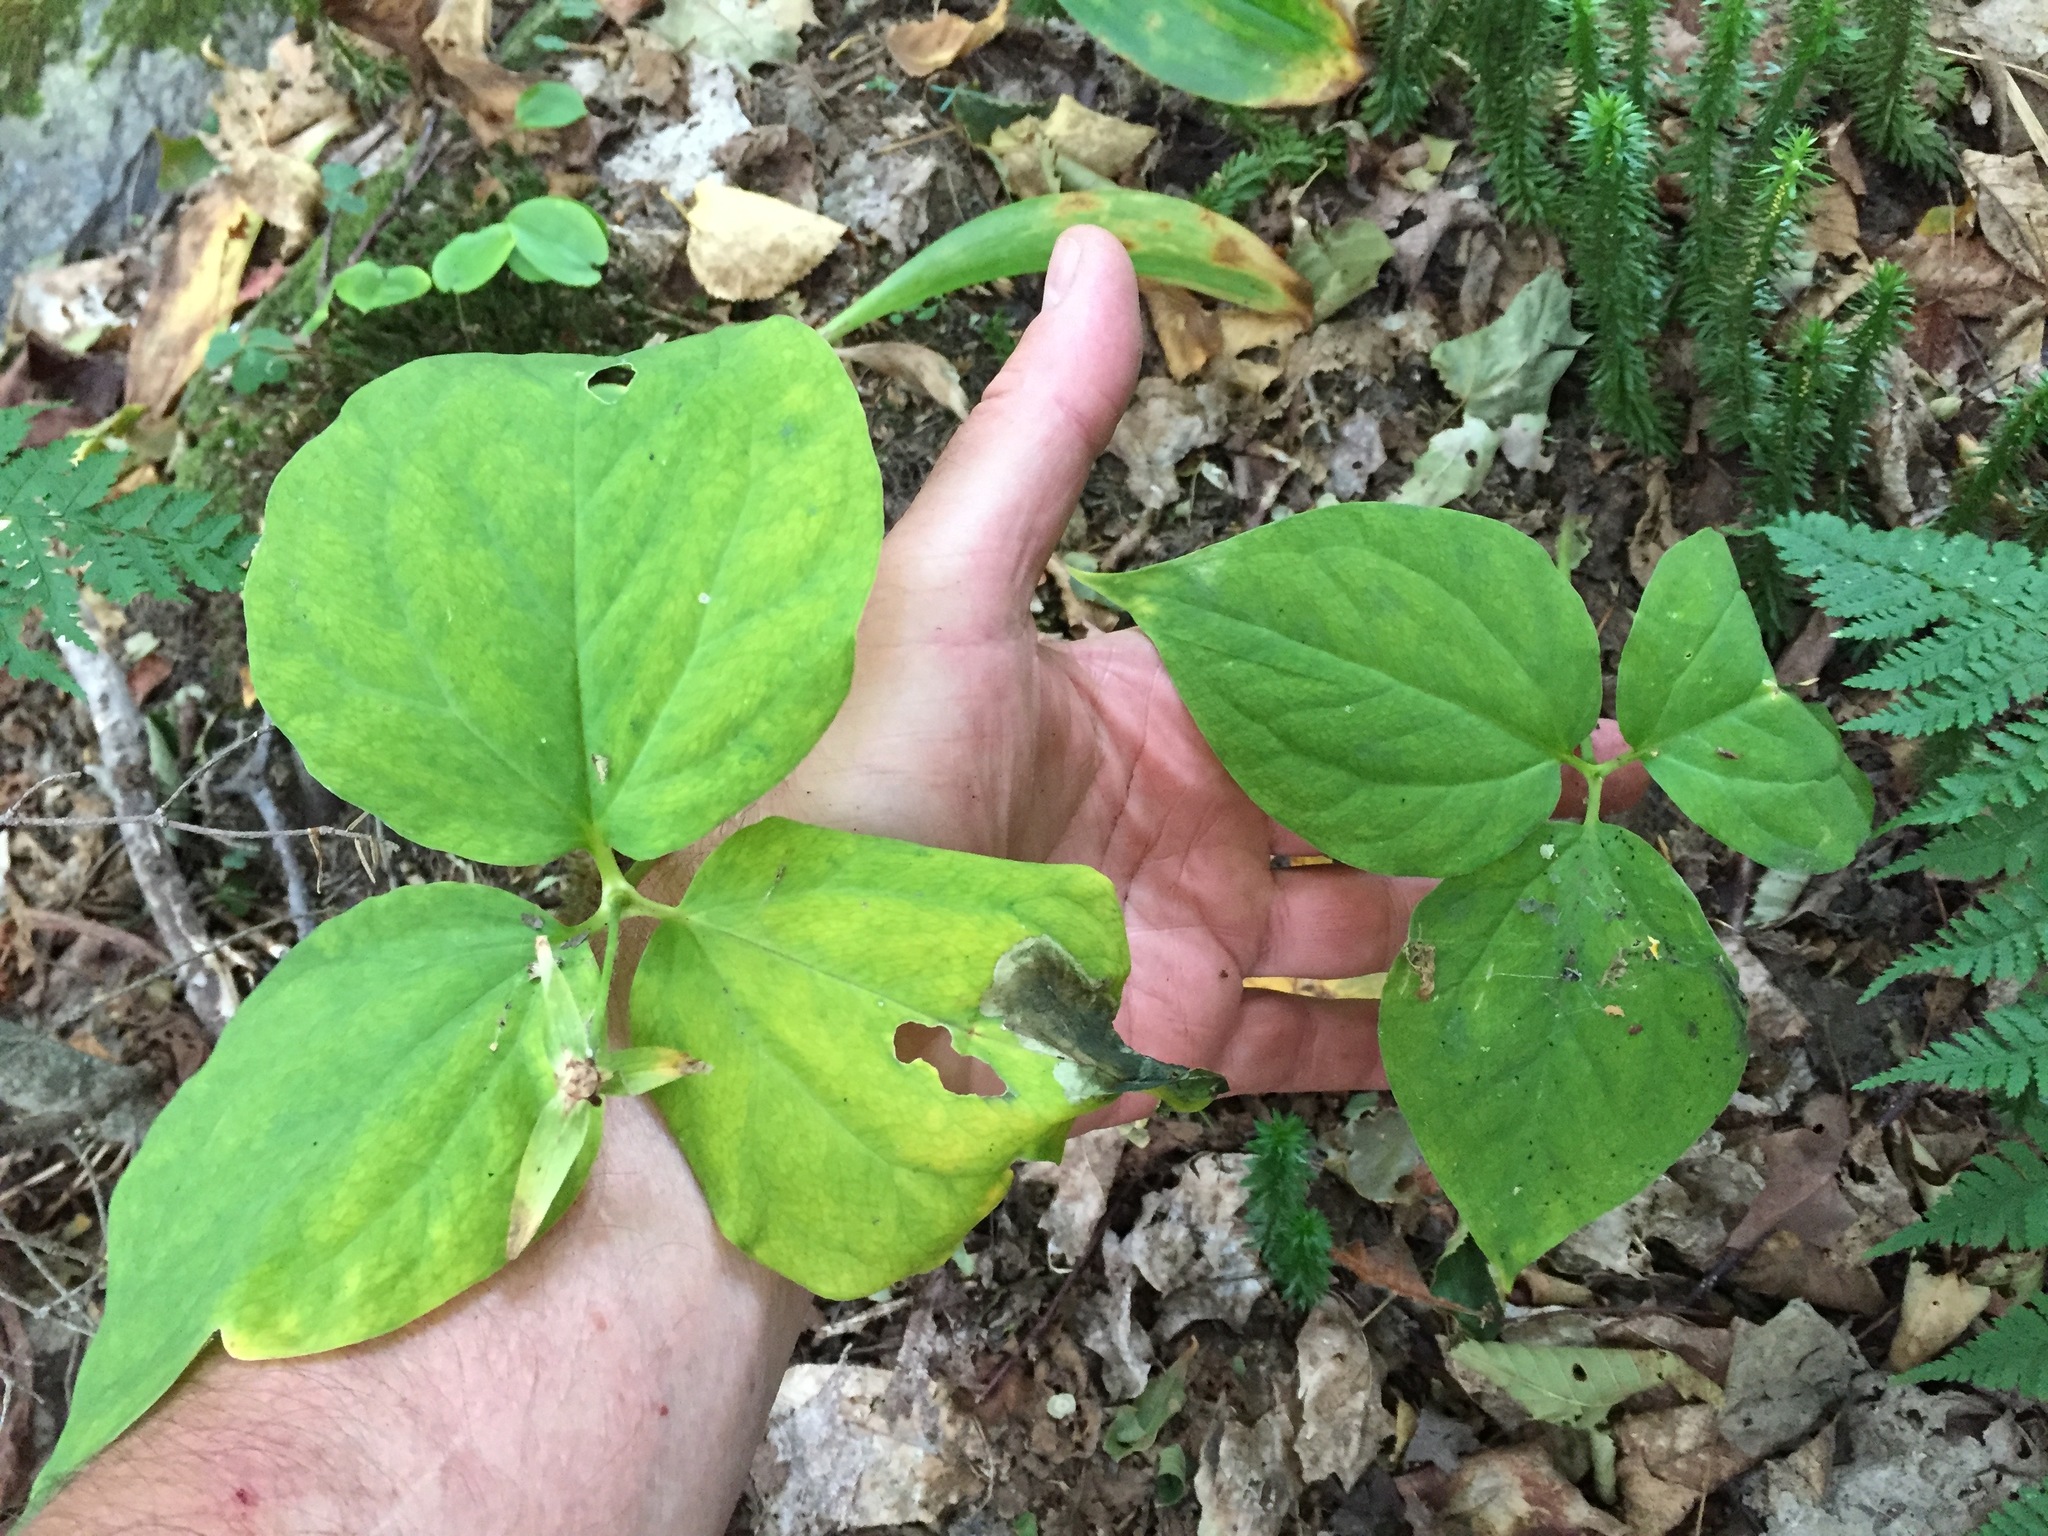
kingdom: Plantae
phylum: Tracheophyta
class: Liliopsida
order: Liliales
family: Melanthiaceae
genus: Trillium
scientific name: Trillium undulatum
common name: Paint trillium
